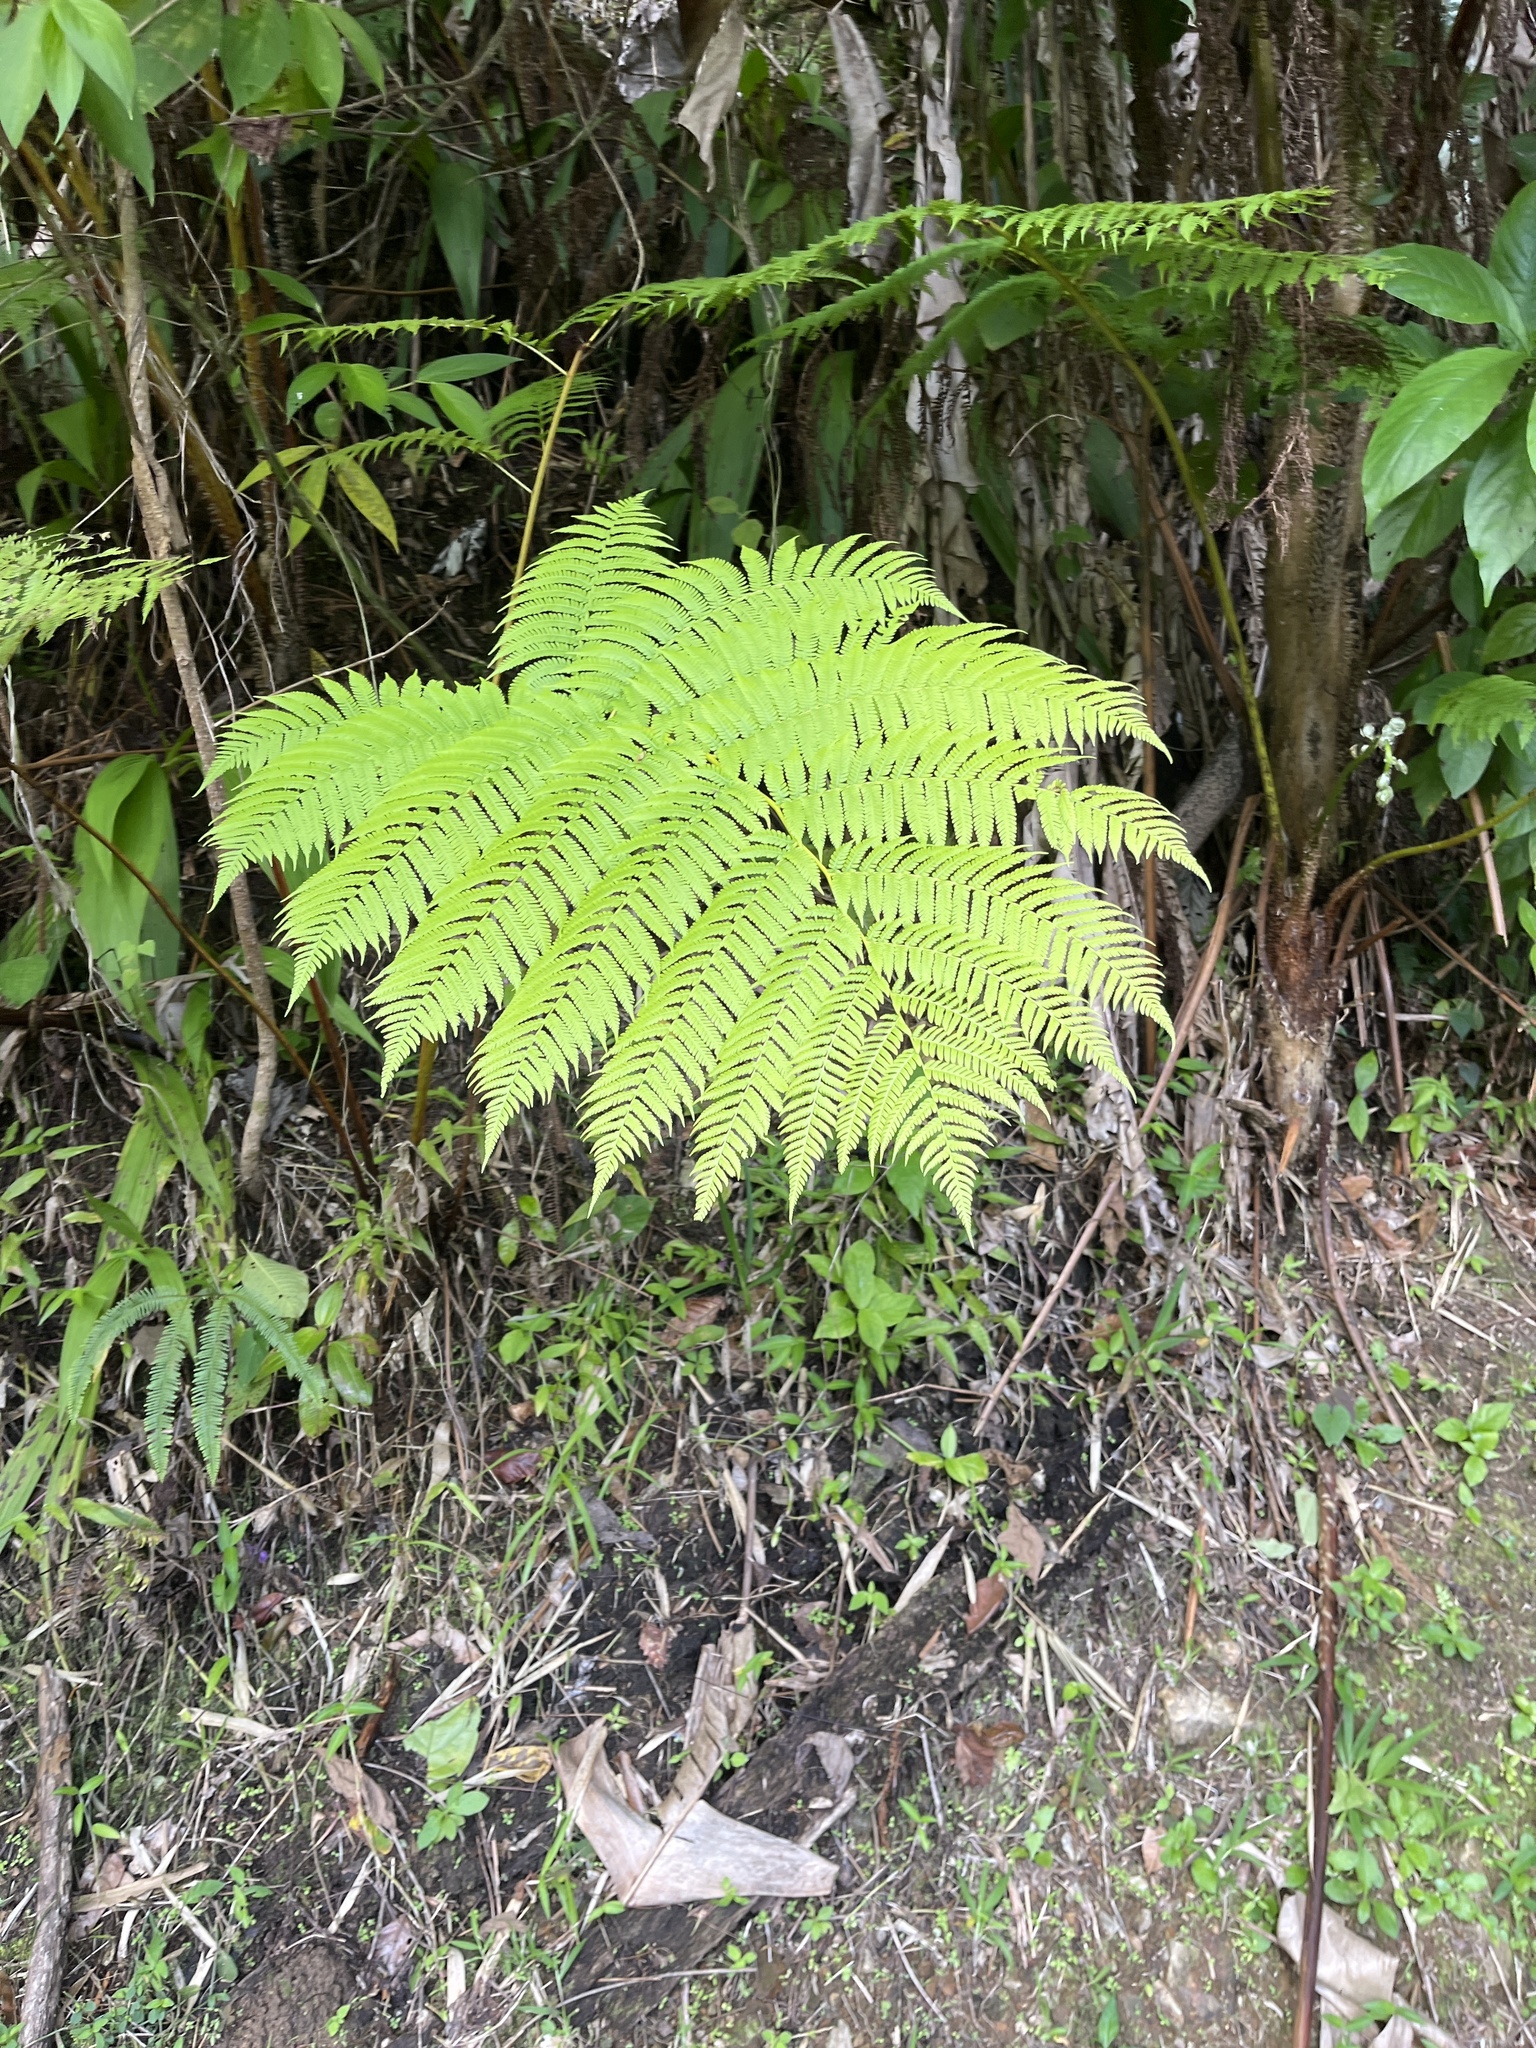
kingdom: Plantae
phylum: Tracheophyta
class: Polypodiopsida
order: Cyatheales
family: Cyatheaceae
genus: Cyathea
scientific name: Cyathea arborea
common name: West indian treefern
